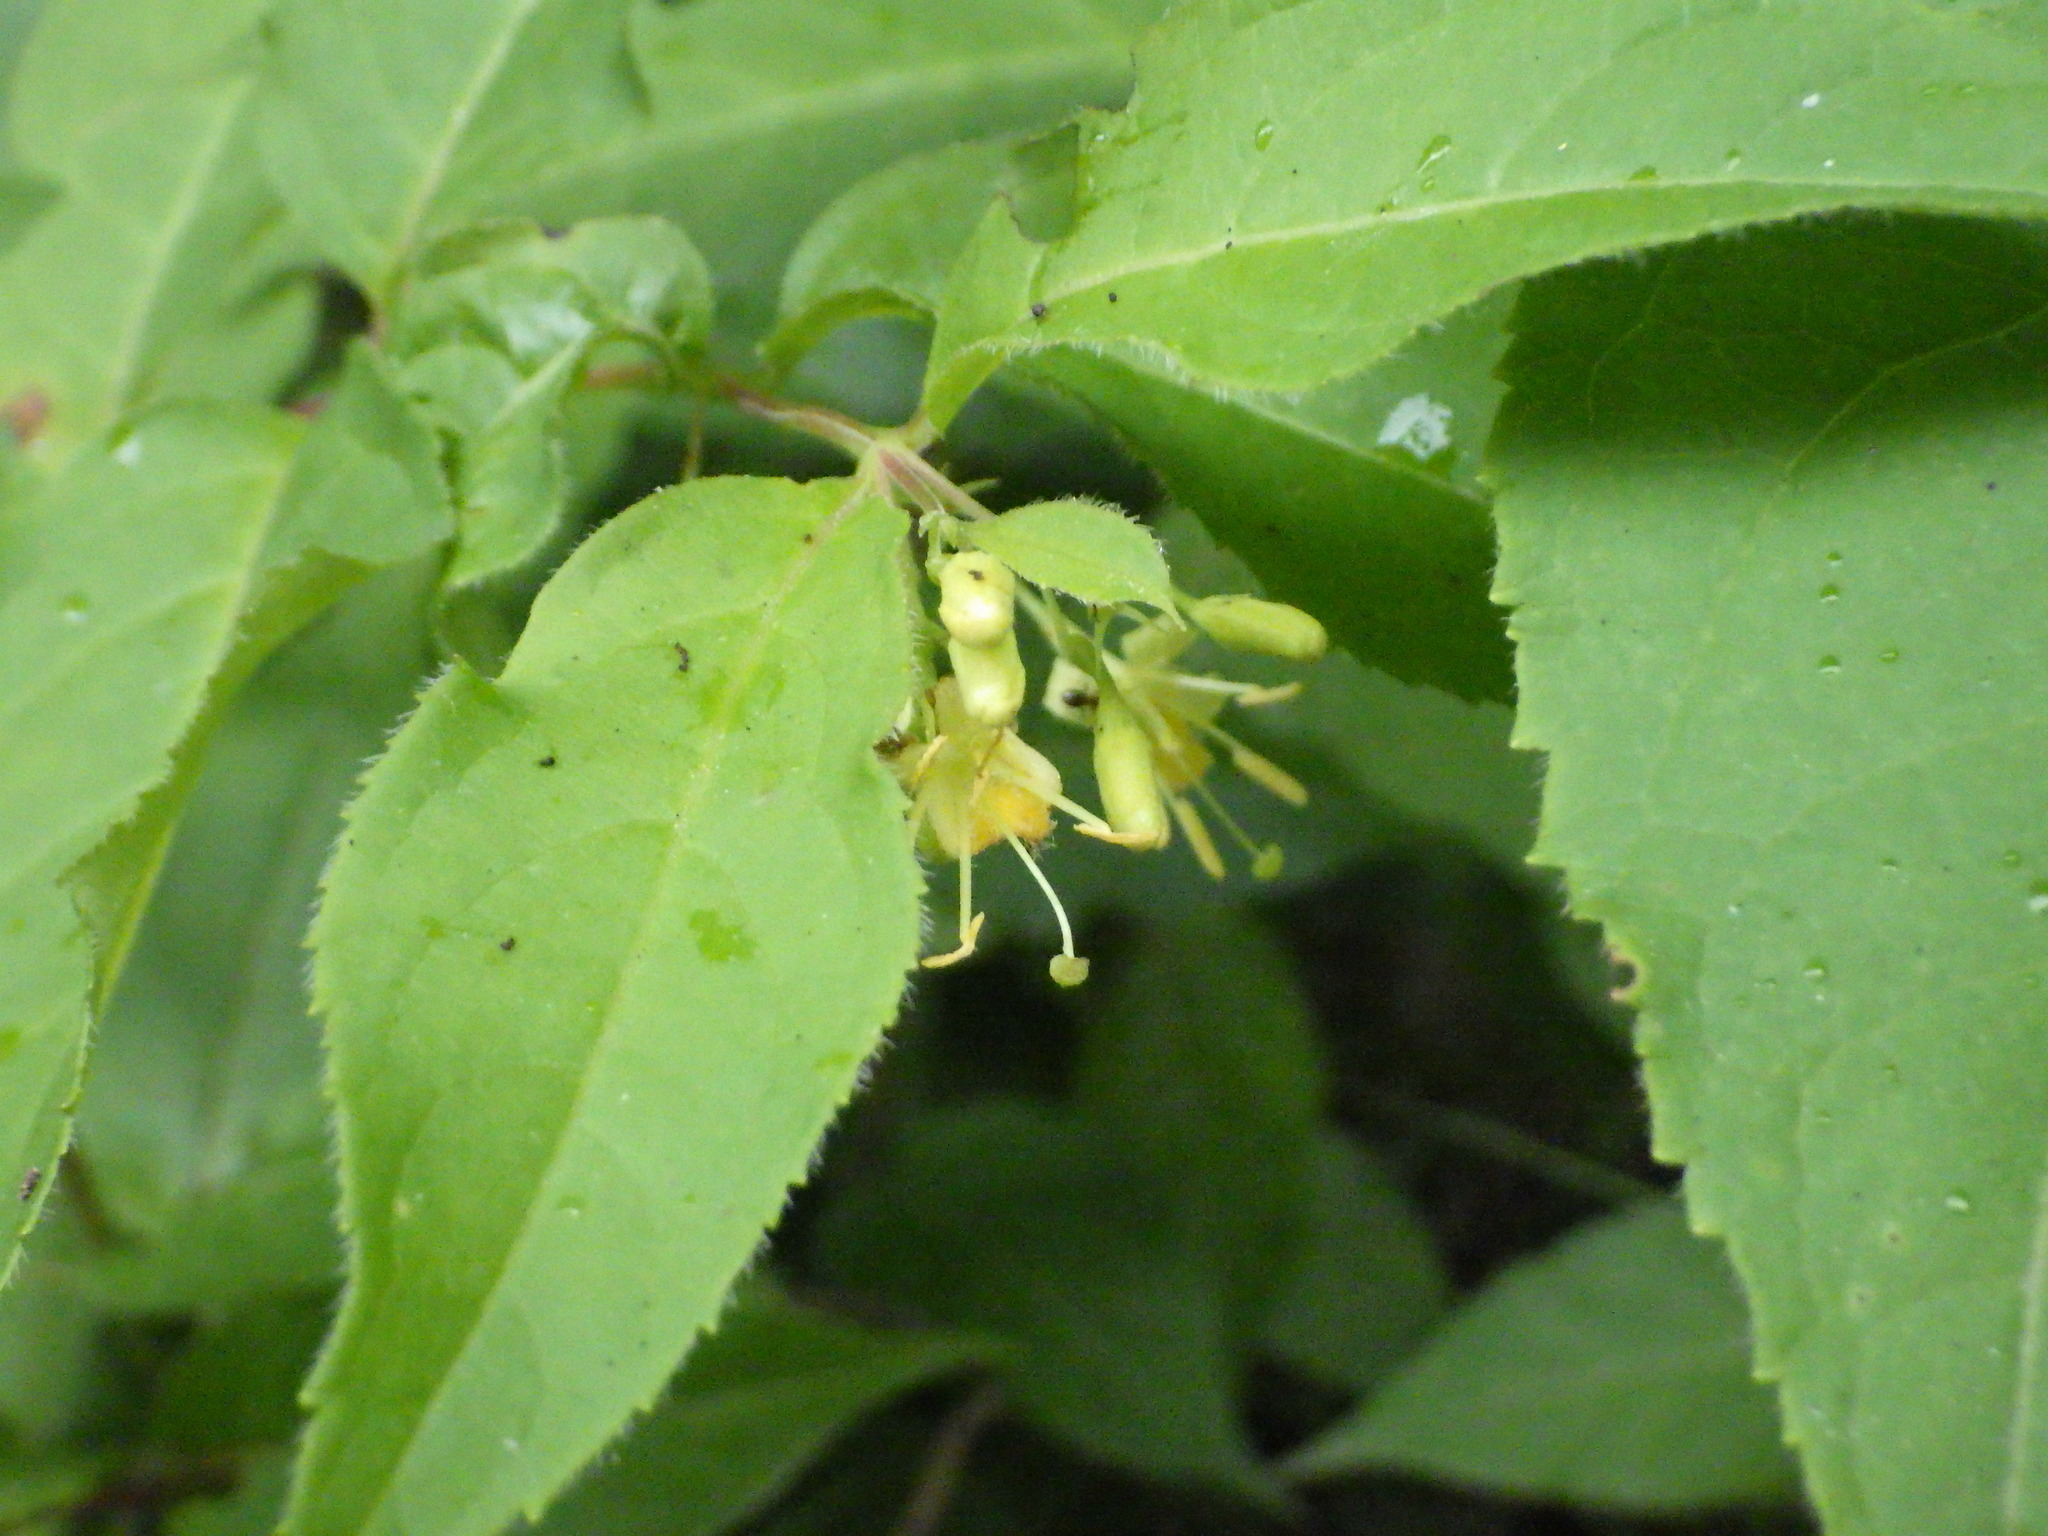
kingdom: Plantae
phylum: Tracheophyta
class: Magnoliopsida
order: Dipsacales
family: Caprifoliaceae
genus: Diervilla
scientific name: Diervilla lonicera
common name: Bush-honeysuckle
